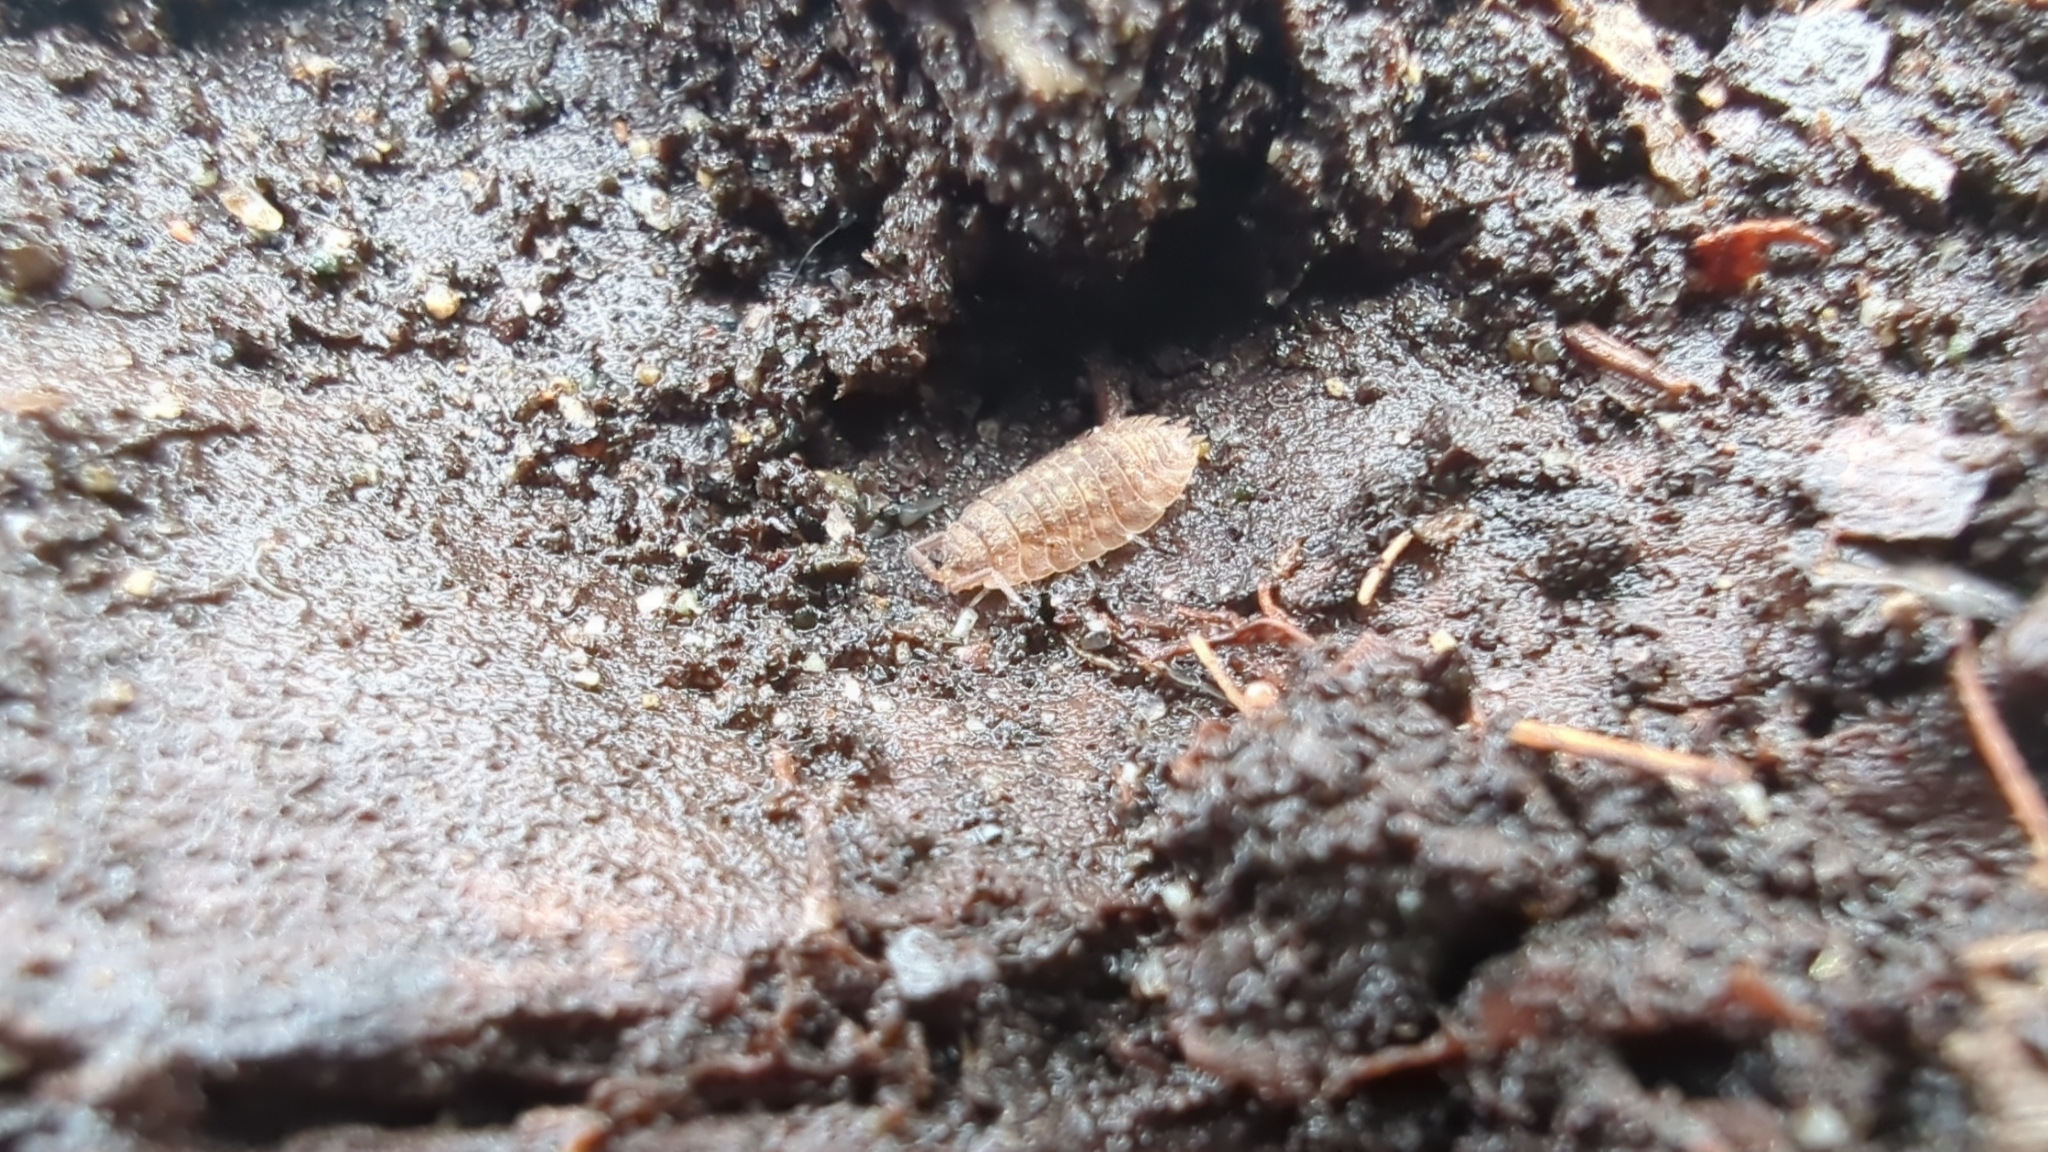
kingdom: Animalia
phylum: Arthropoda
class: Malacostraca
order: Isopoda
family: Oniscidae
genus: Oniscus
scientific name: Oniscus asellus
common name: Common shiny woodlouse
